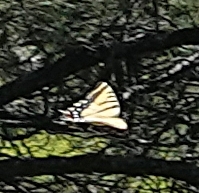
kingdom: Animalia
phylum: Arthropoda
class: Insecta
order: Lepidoptera
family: Papilionidae
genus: Papilio
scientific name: Papilio multicaudata
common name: Two-tailed tiger swallowtail
